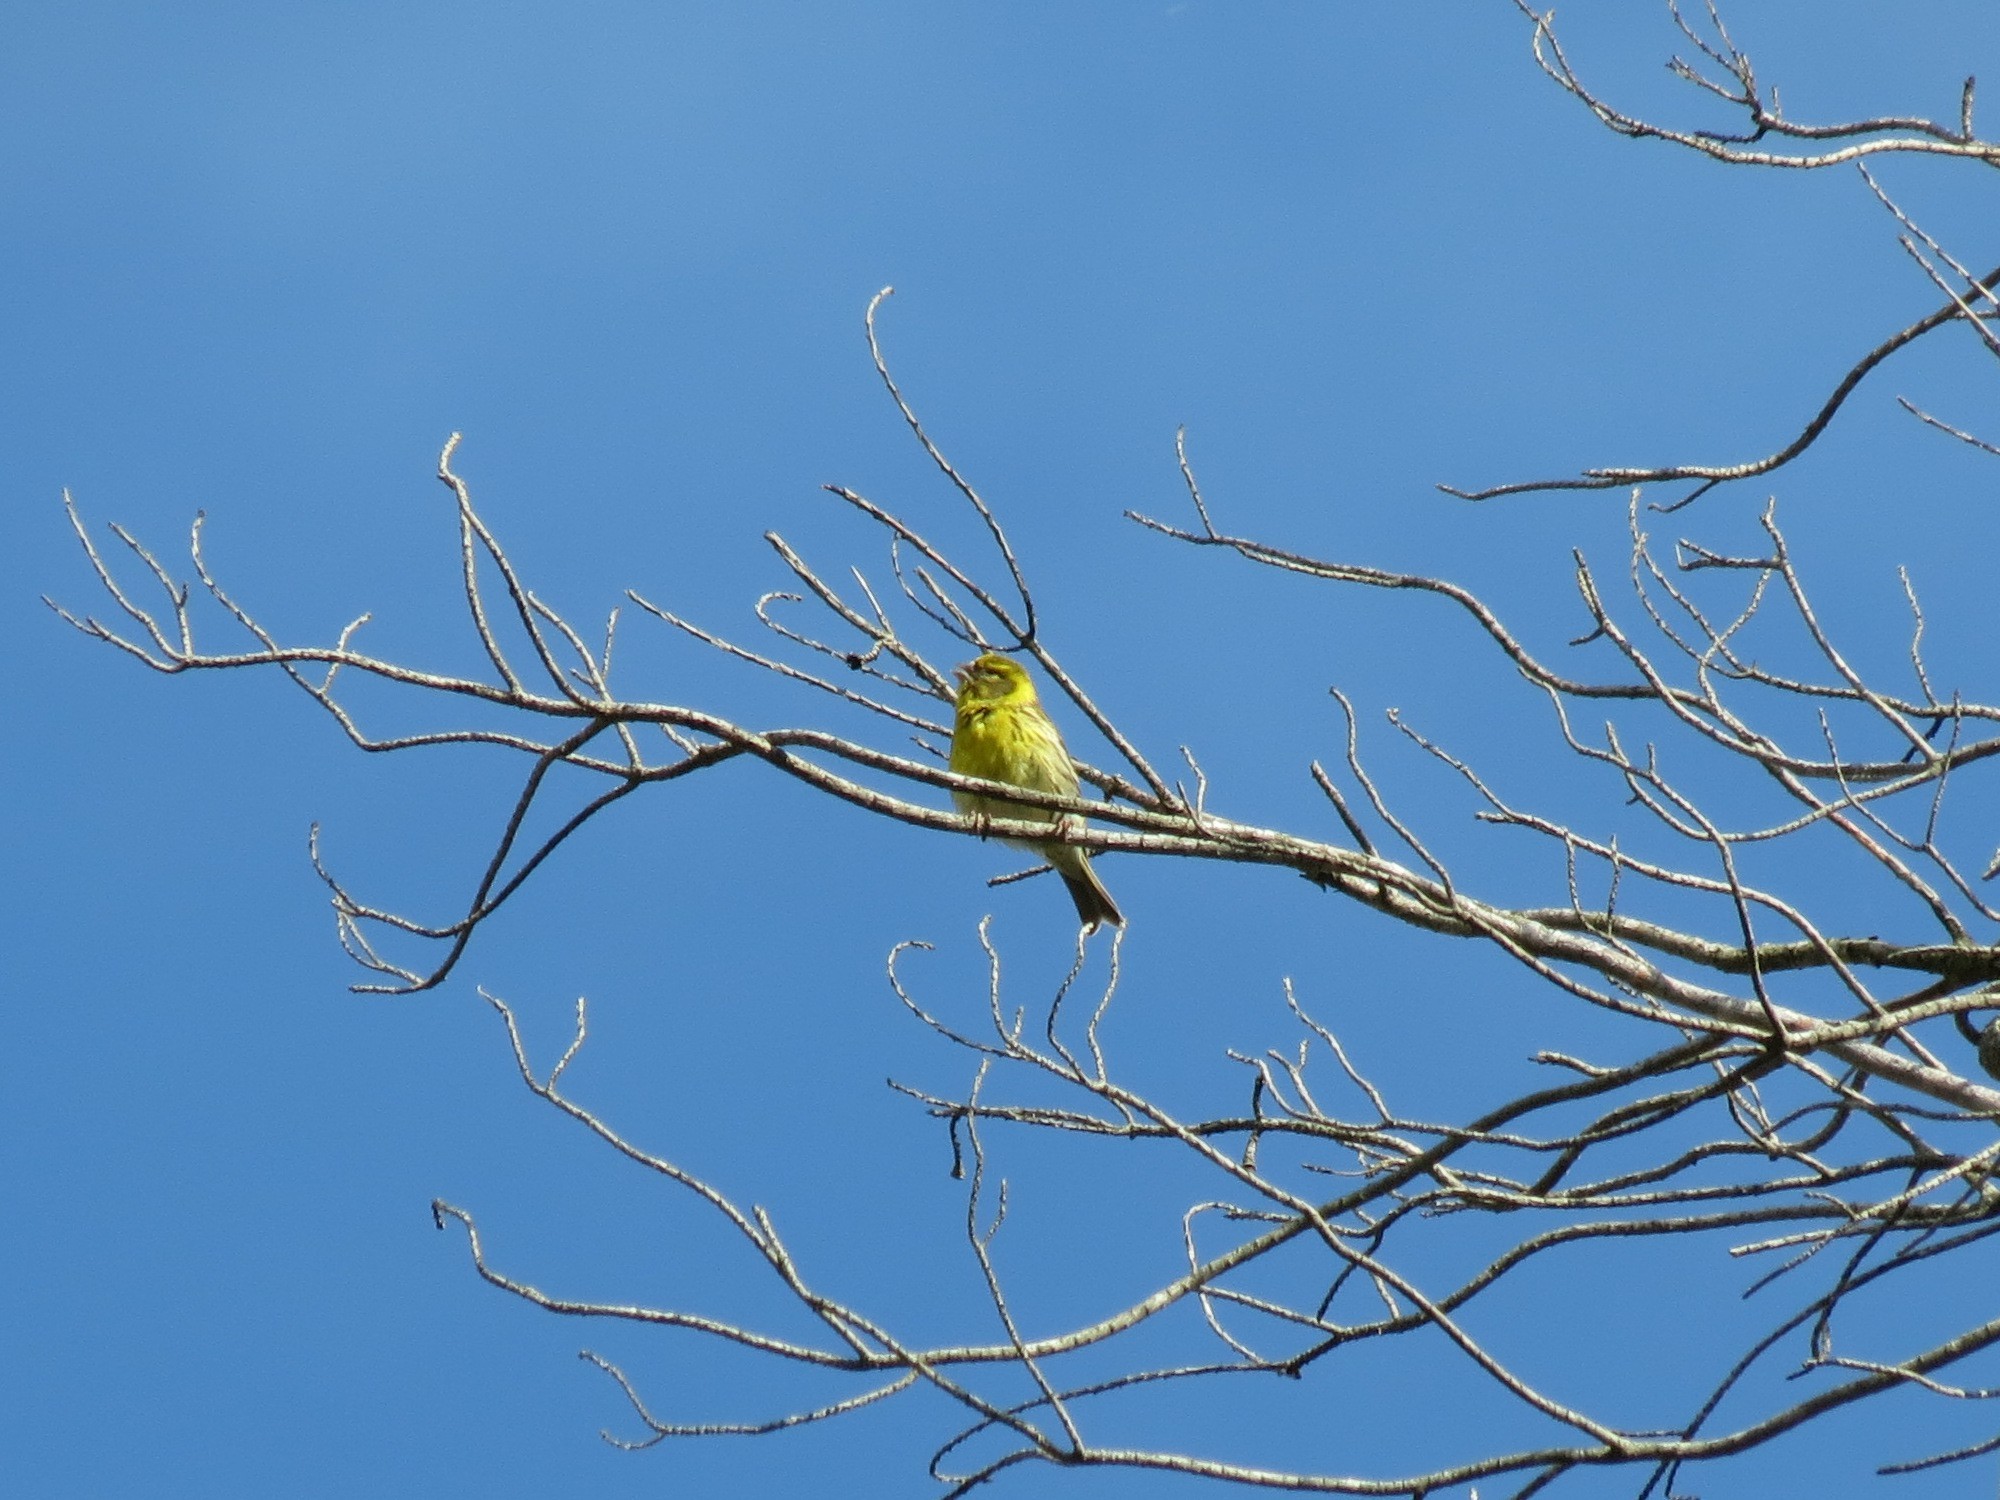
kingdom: Animalia
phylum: Chordata
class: Aves
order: Passeriformes
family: Fringillidae
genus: Serinus
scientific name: Serinus serinus
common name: European serin
